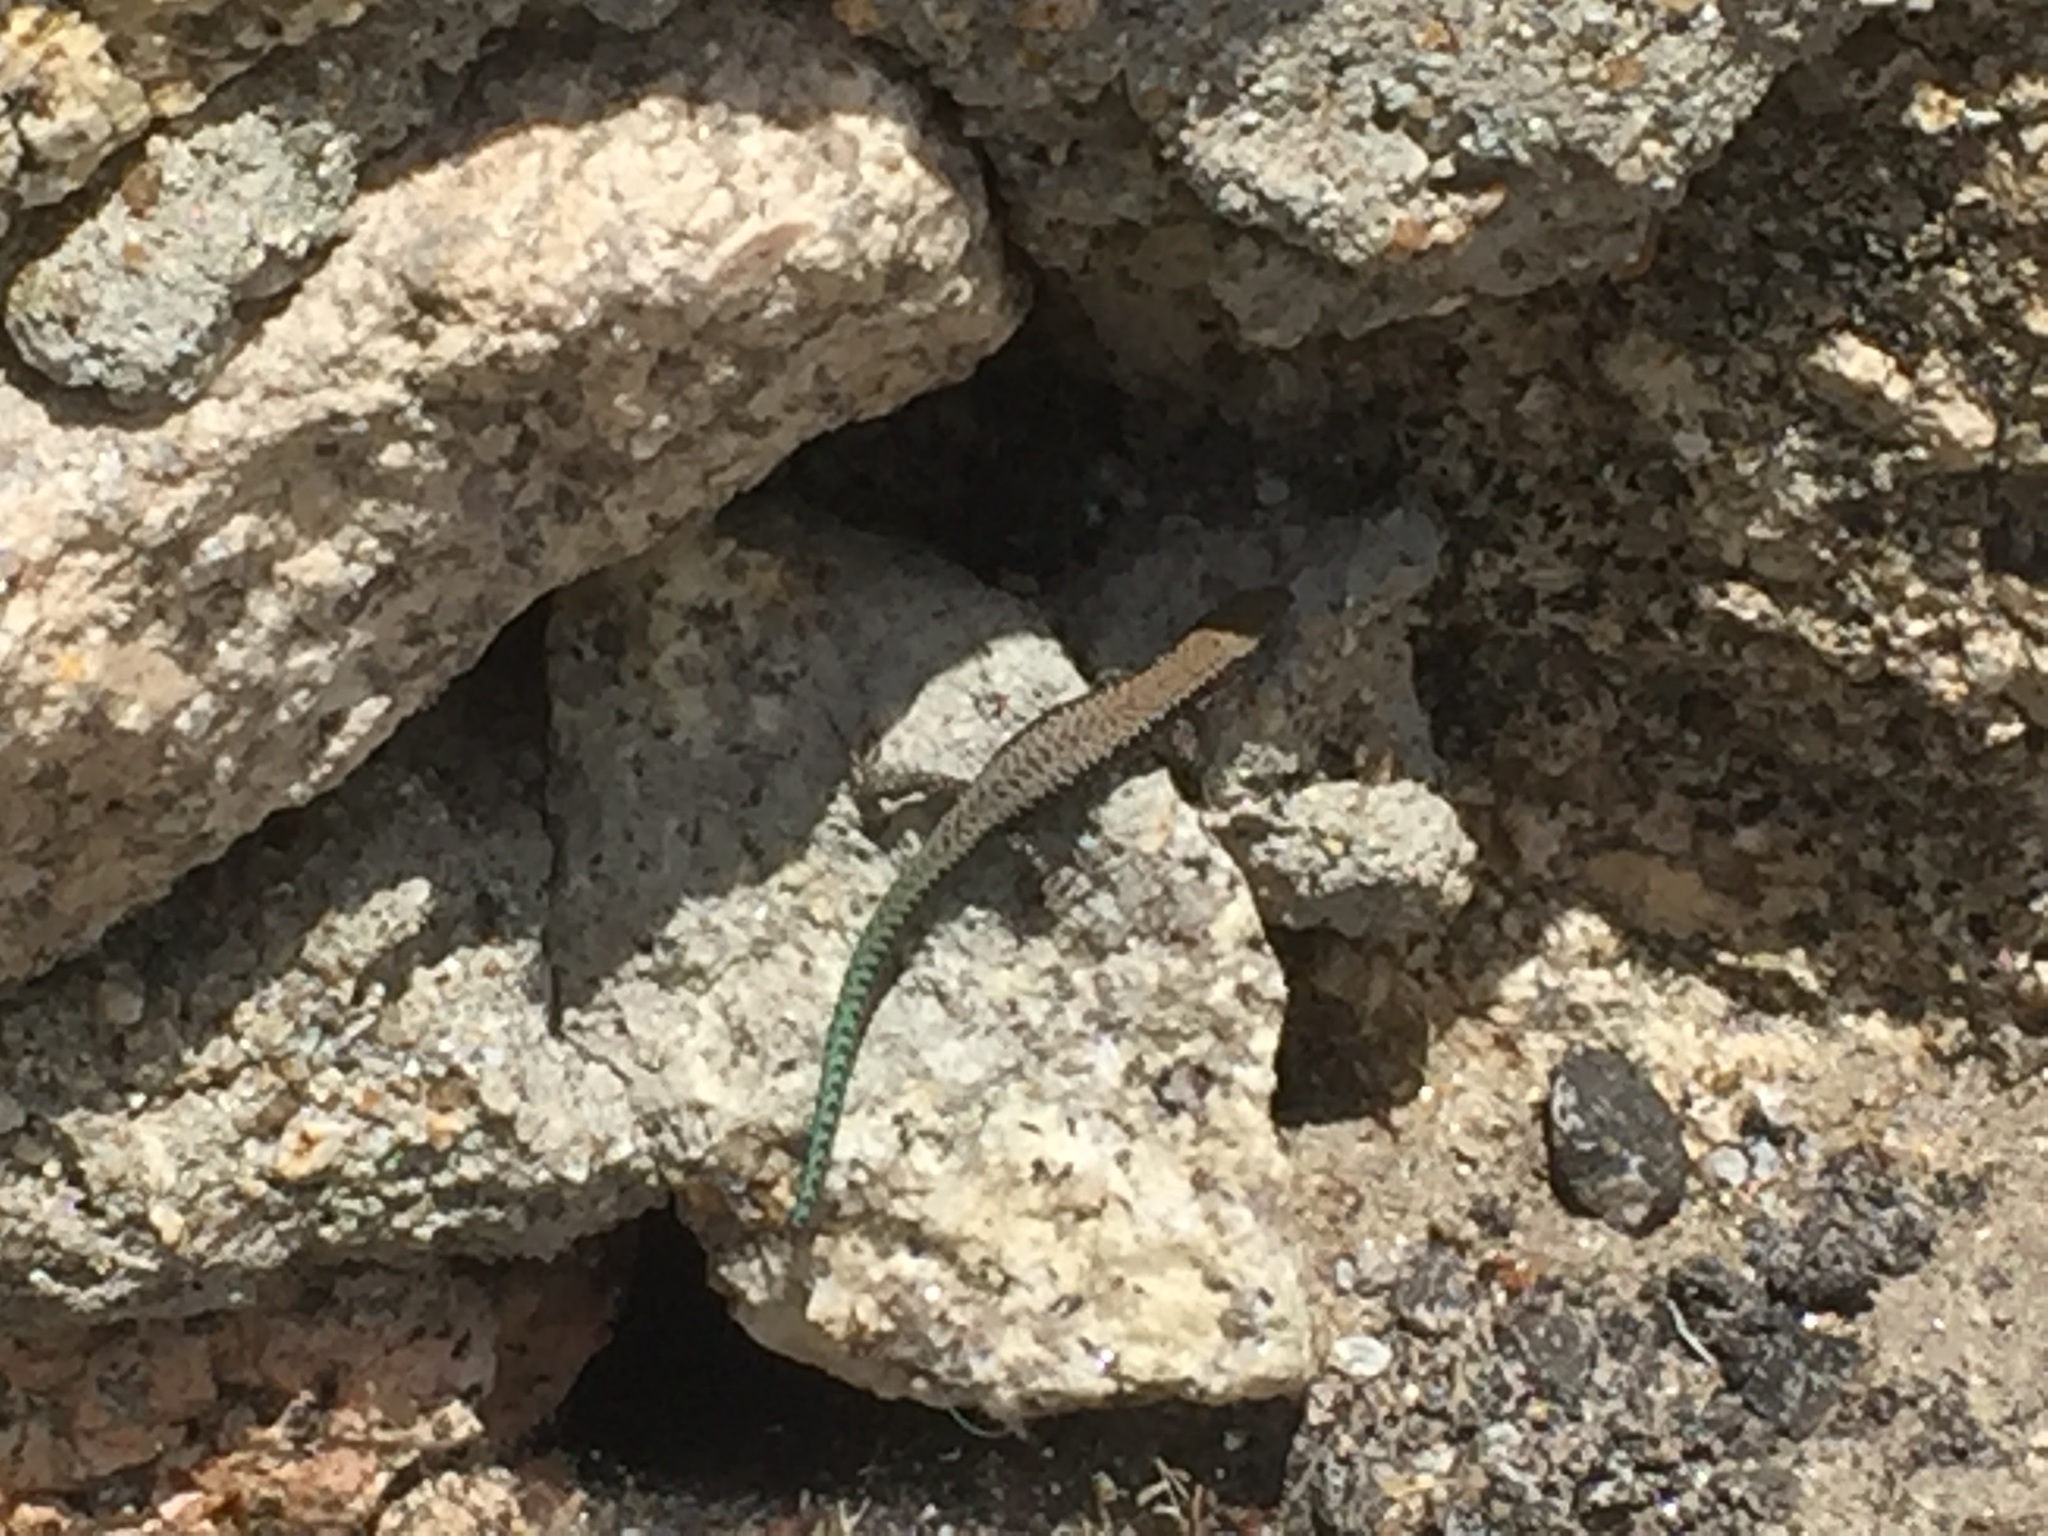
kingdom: Animalia
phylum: Chordata
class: Squamata
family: Lacertidae
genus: Iberolacerta
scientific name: Iberolacerta monticola
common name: Iberian mountain lizard
